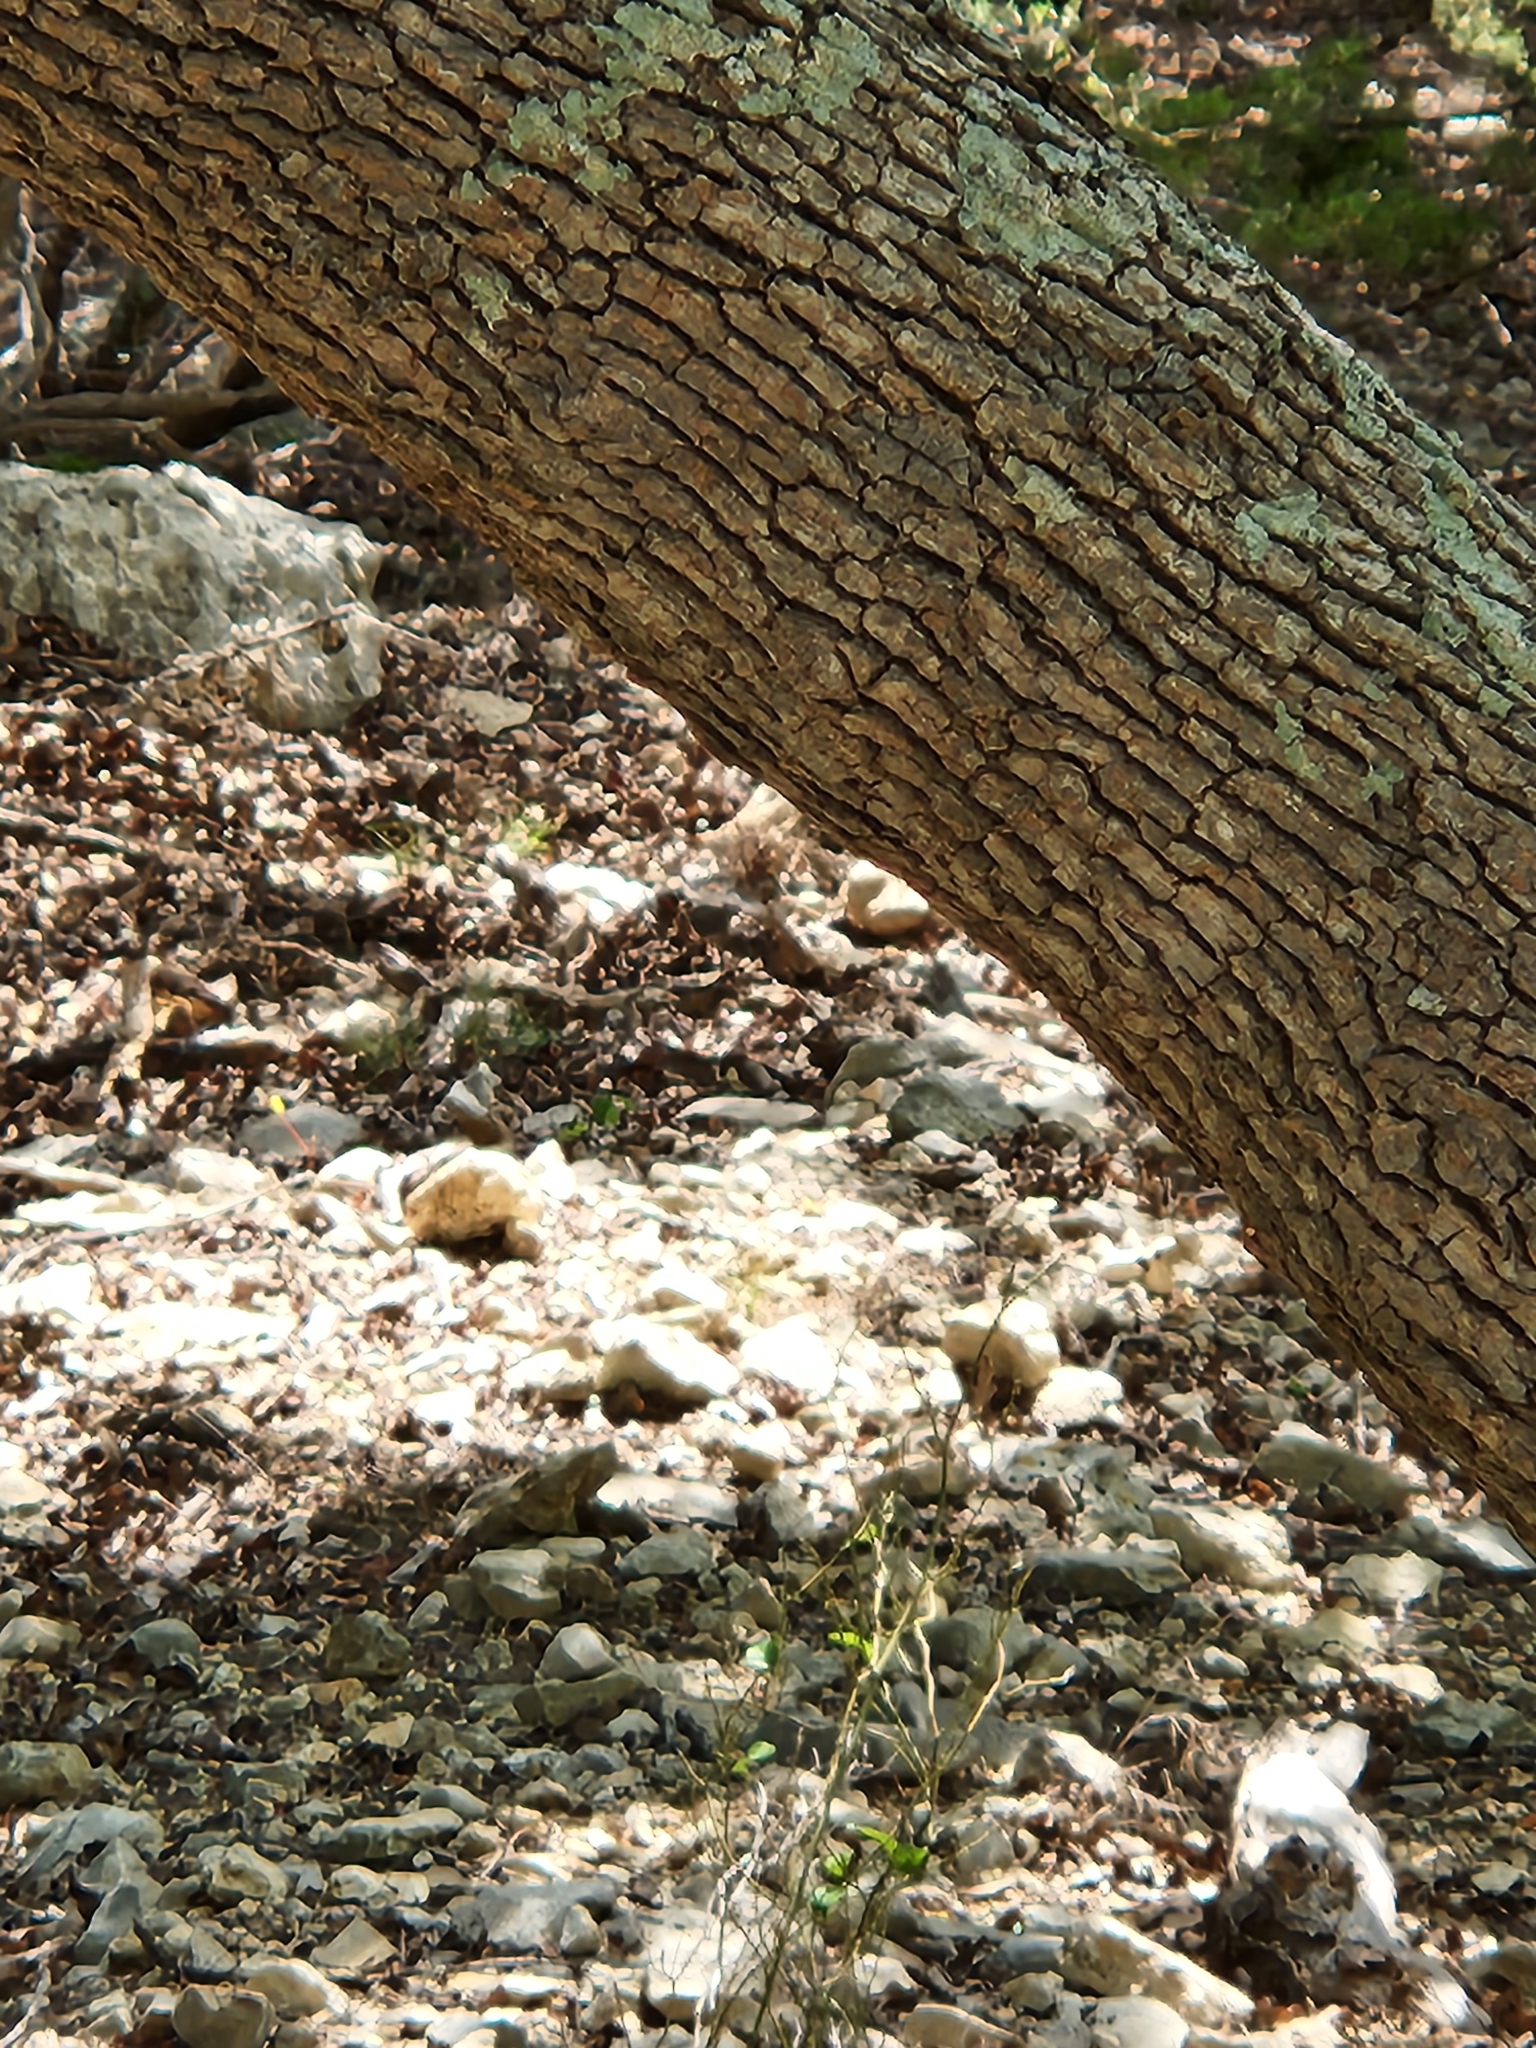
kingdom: Plantae
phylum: Tracheophyta
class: Magnoliopsida
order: Fagales
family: Fagaceae
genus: Quercus
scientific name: Quercus laceyi
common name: Lacey oak
